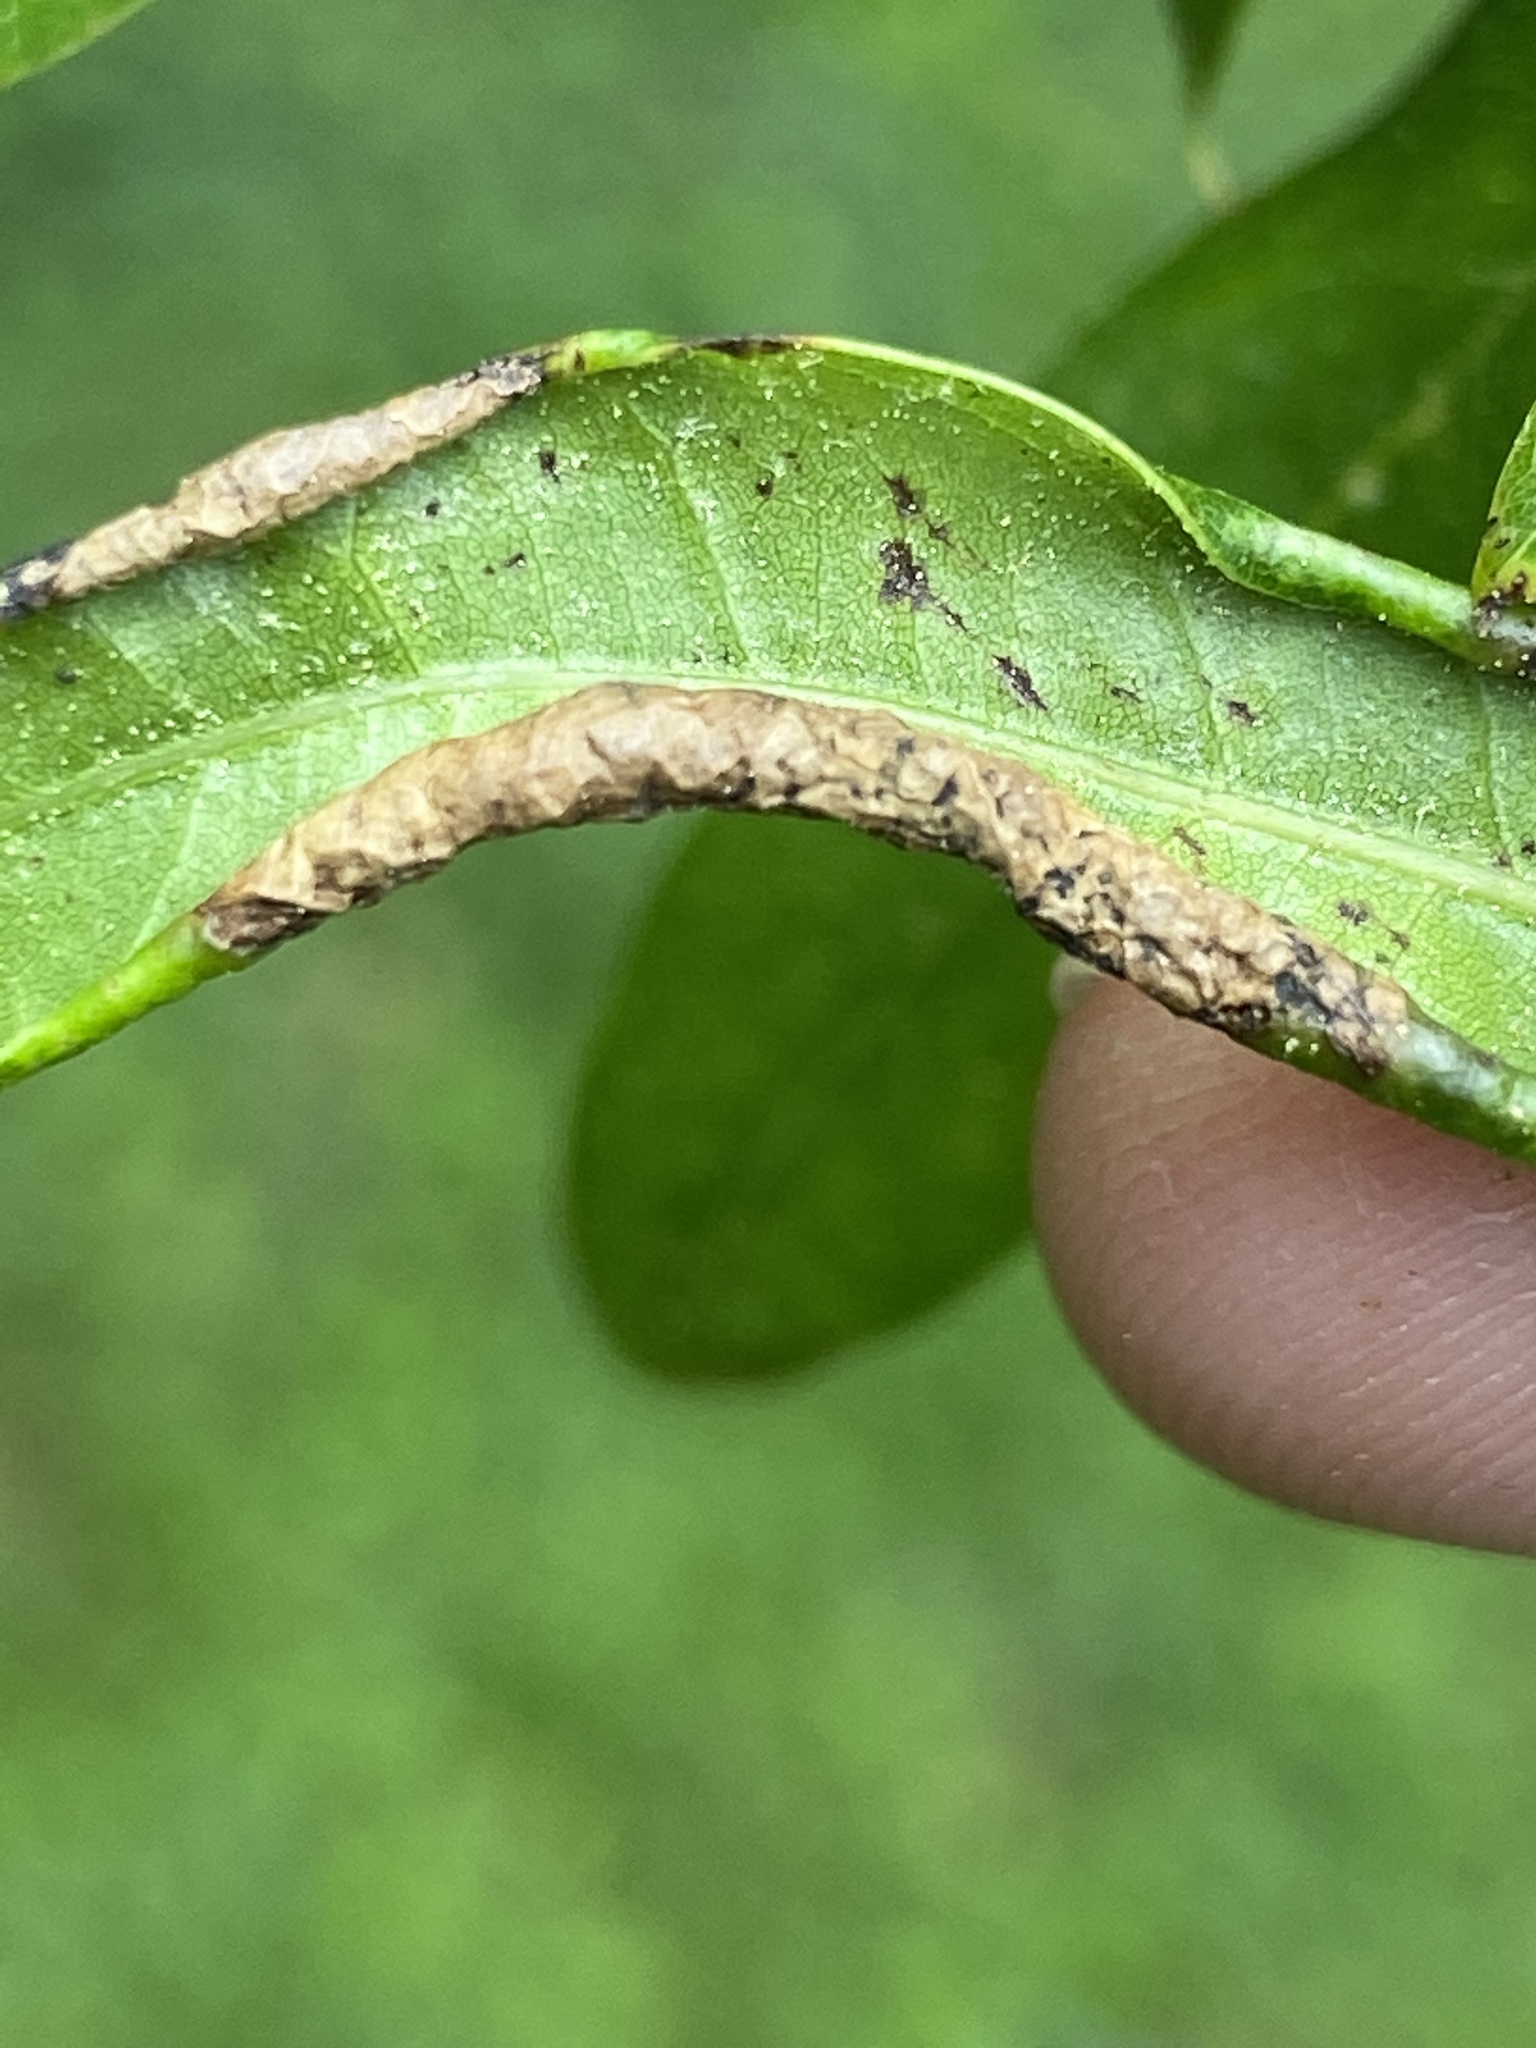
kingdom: Animalia
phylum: Arthropoda
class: Insecta
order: Diptera
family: Cecidomyiidae
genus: Macrodiplosis
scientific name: Macrodiplosis erubescens
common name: Marginal leaf fold gall midge
